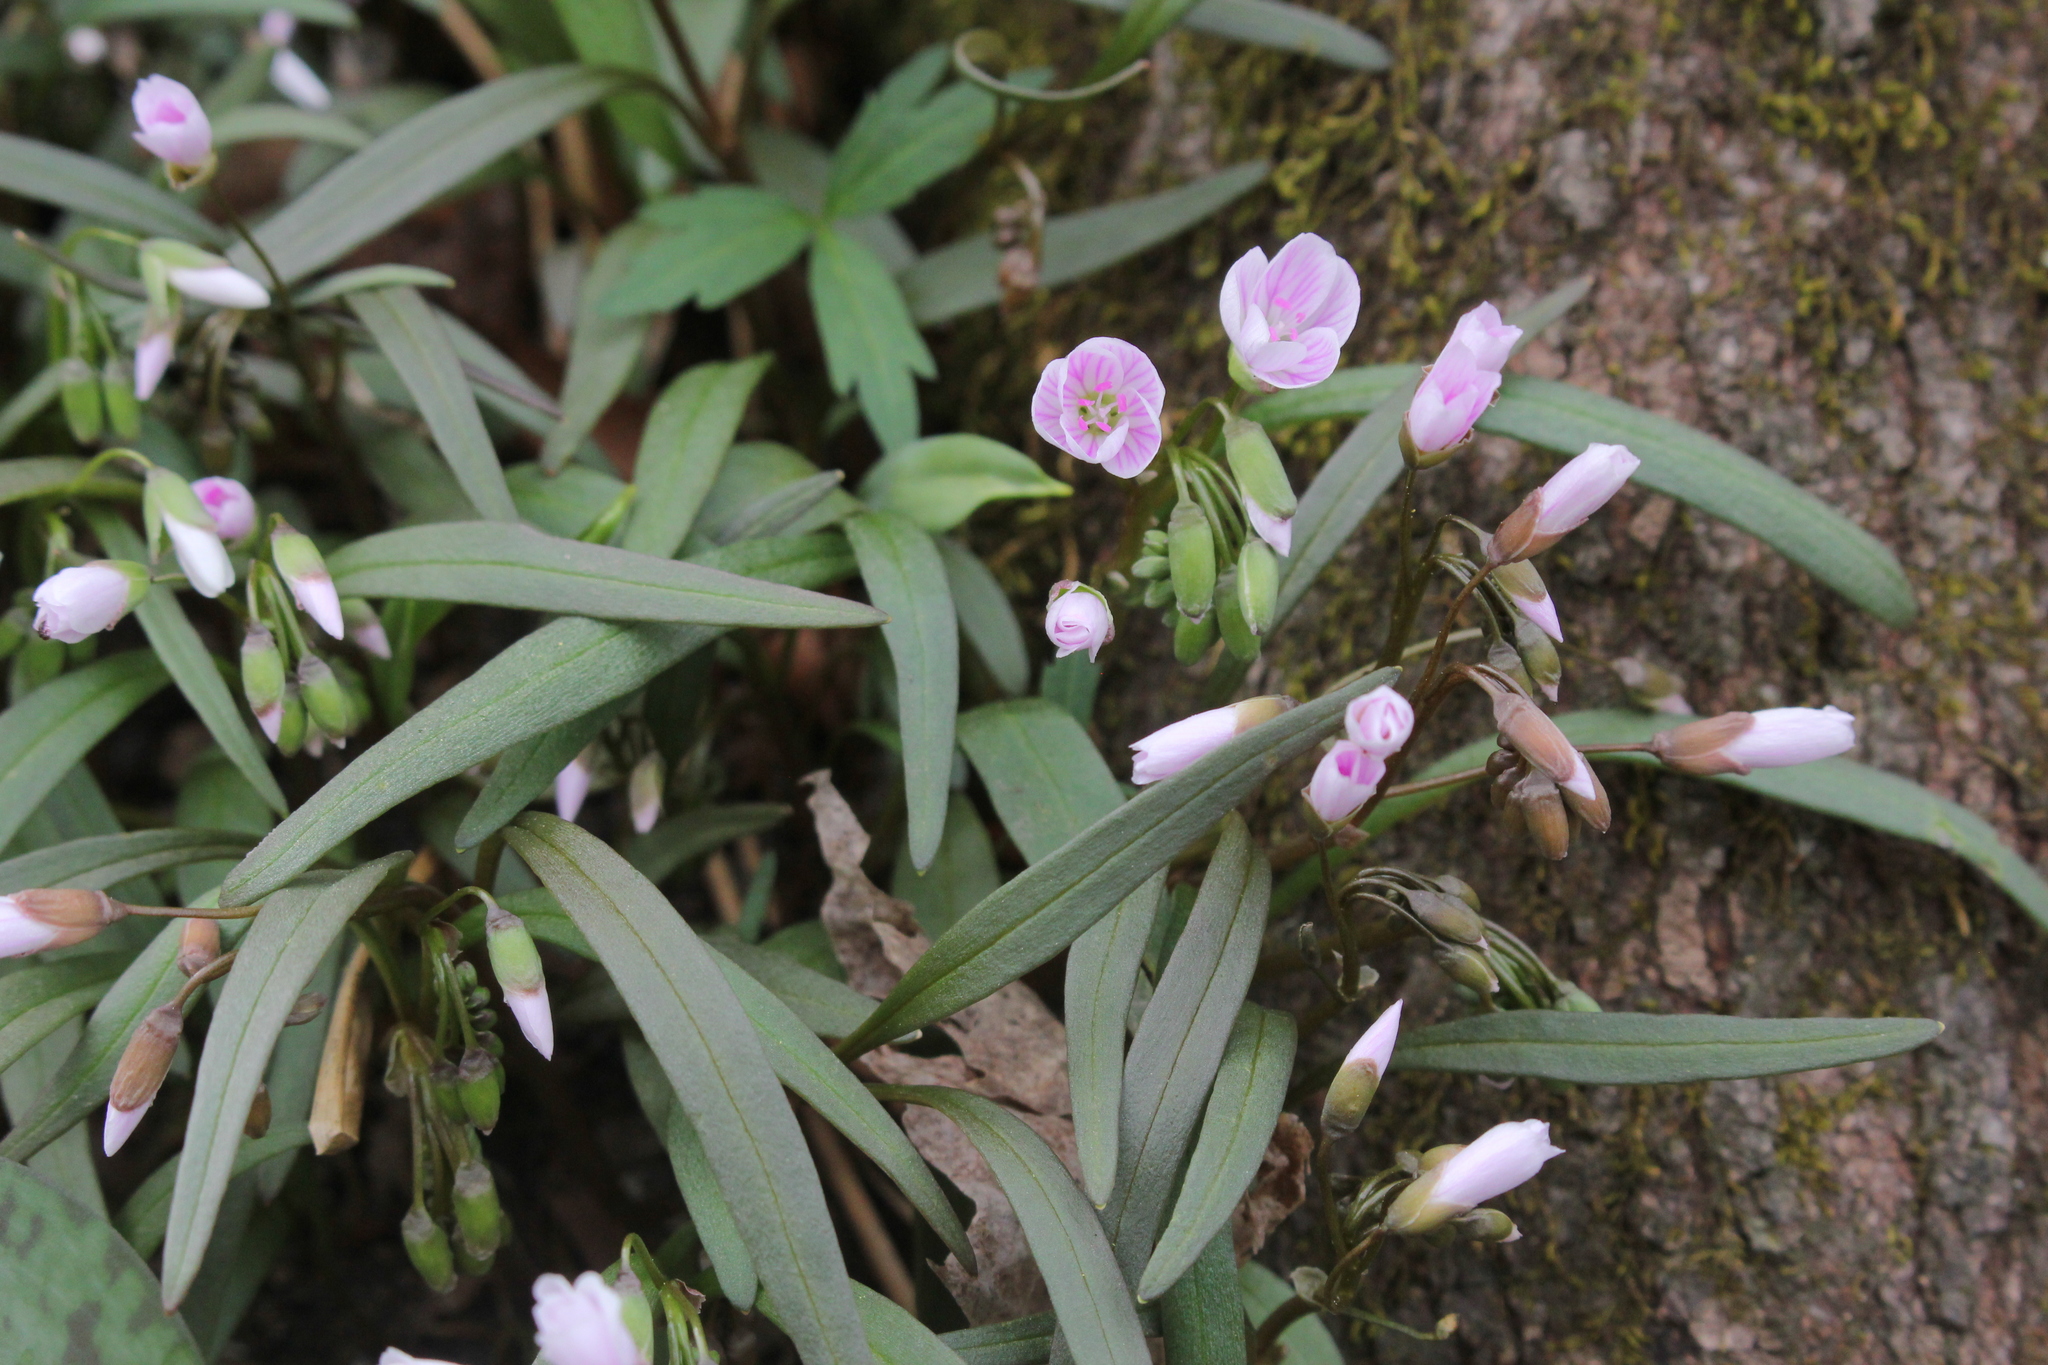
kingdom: Plantae
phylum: Tracheophyta
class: Magnoliopsida
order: Caryophyllales
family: Montiaceae
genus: Claytonia
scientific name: Claytonia virginica
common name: Virginia springbeauty
